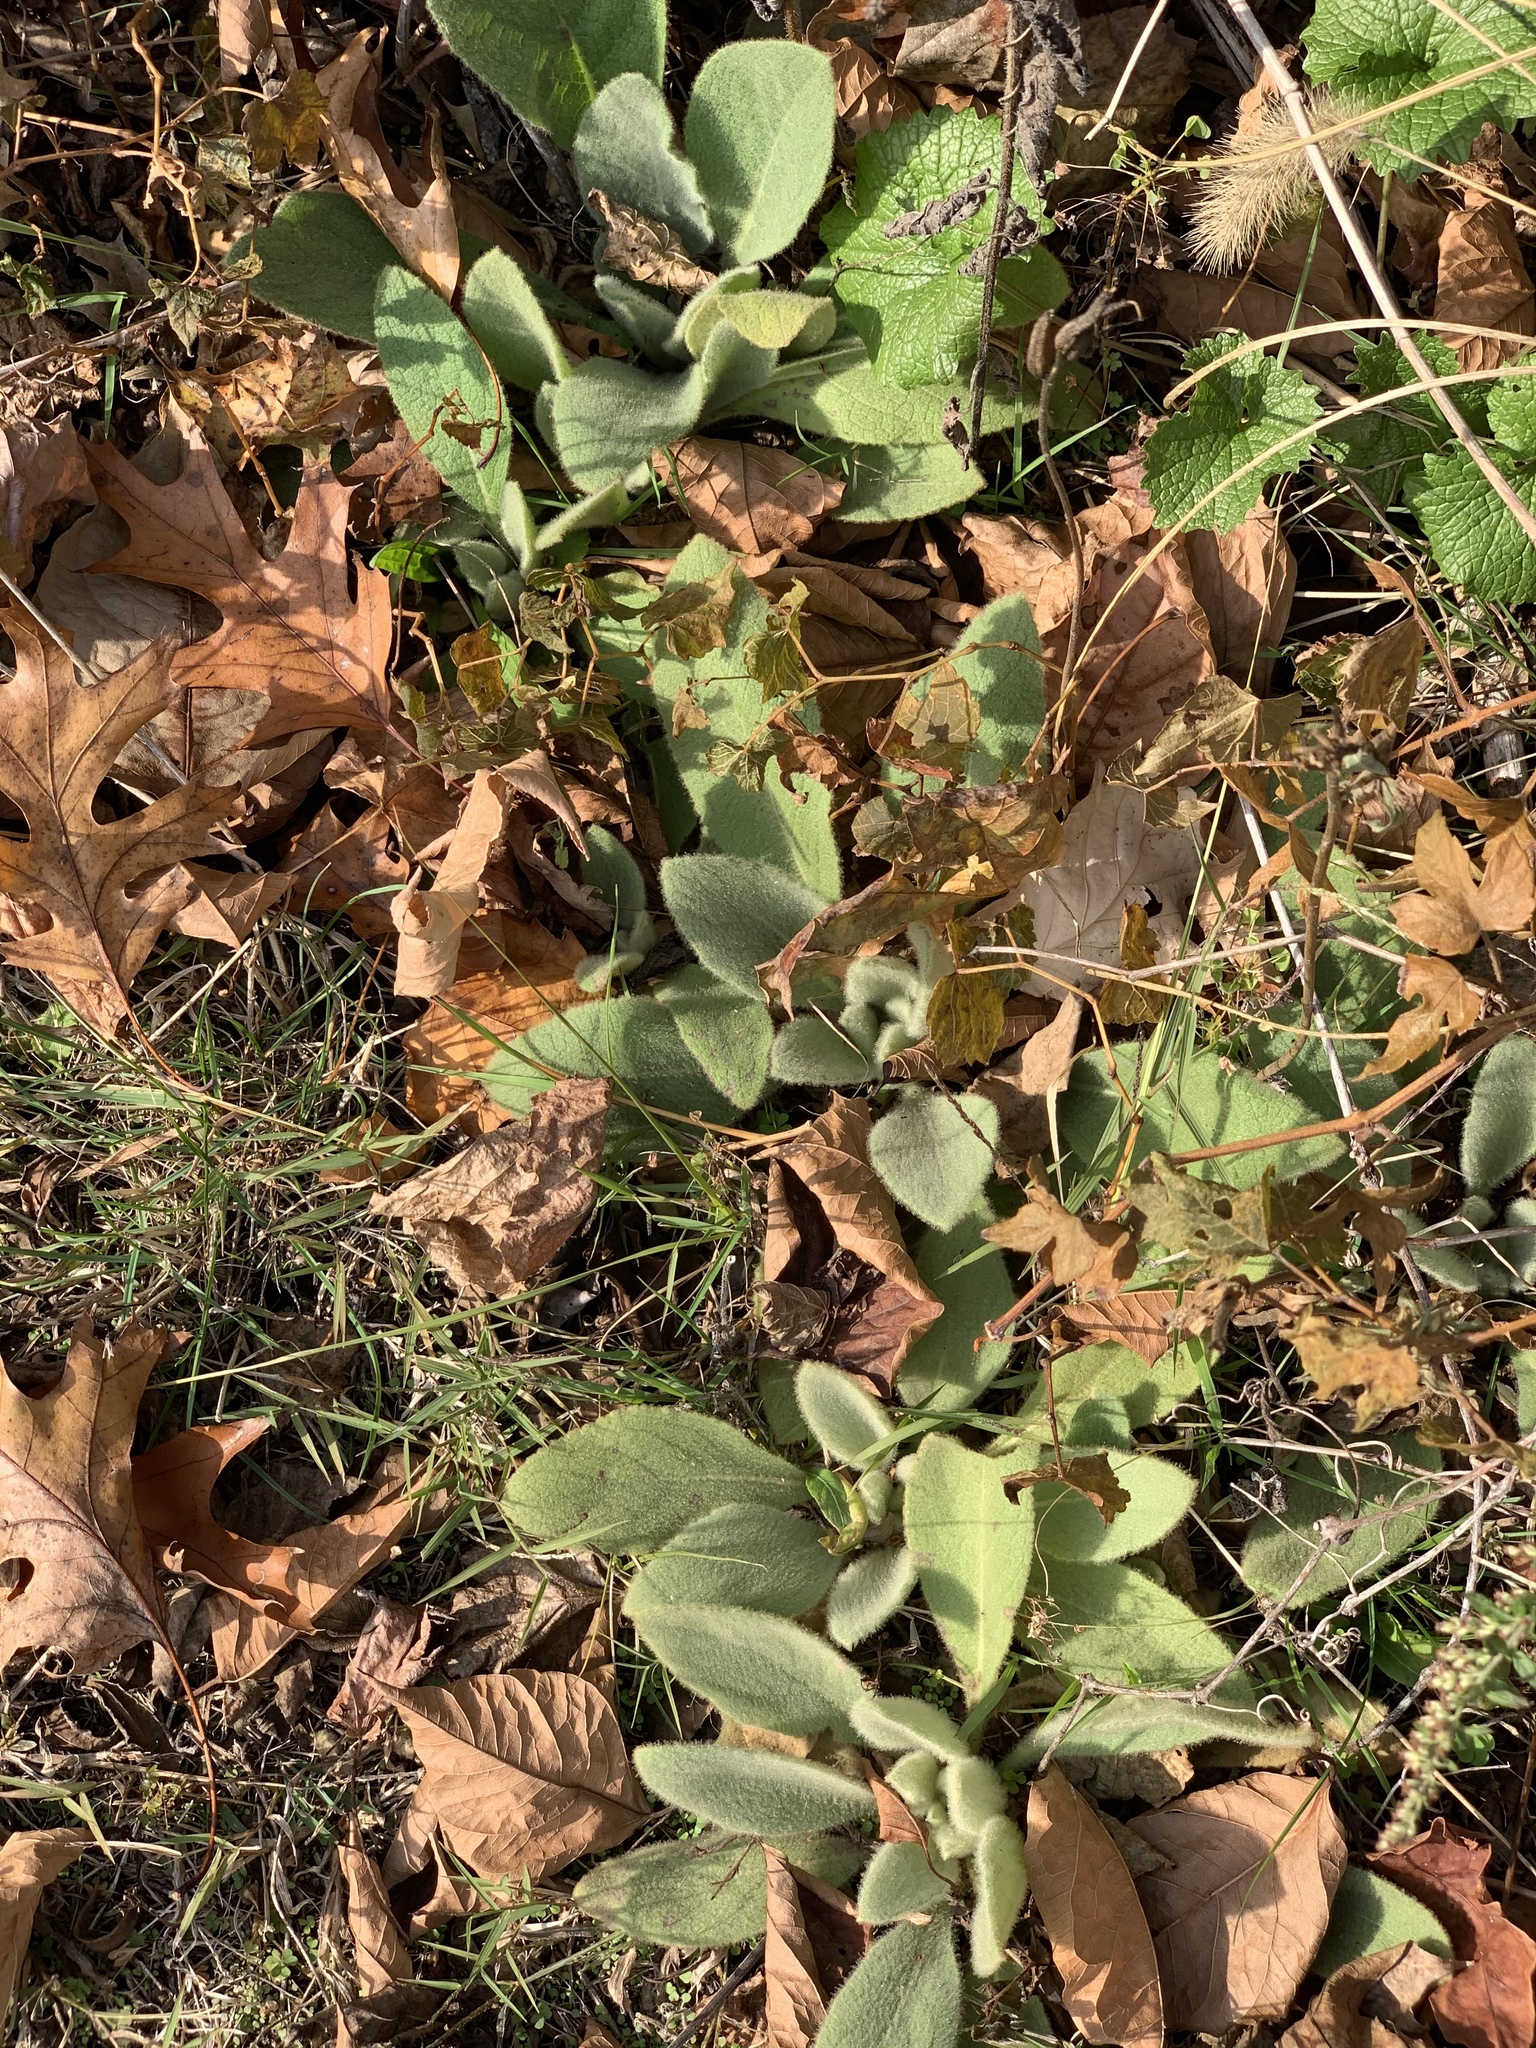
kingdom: Plantae
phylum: Tracheophyta
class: Magnoliopsida
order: Lamiales
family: Scrophulariaceae
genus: Verbascum
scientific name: Verbascum thapsus
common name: Common mullein
